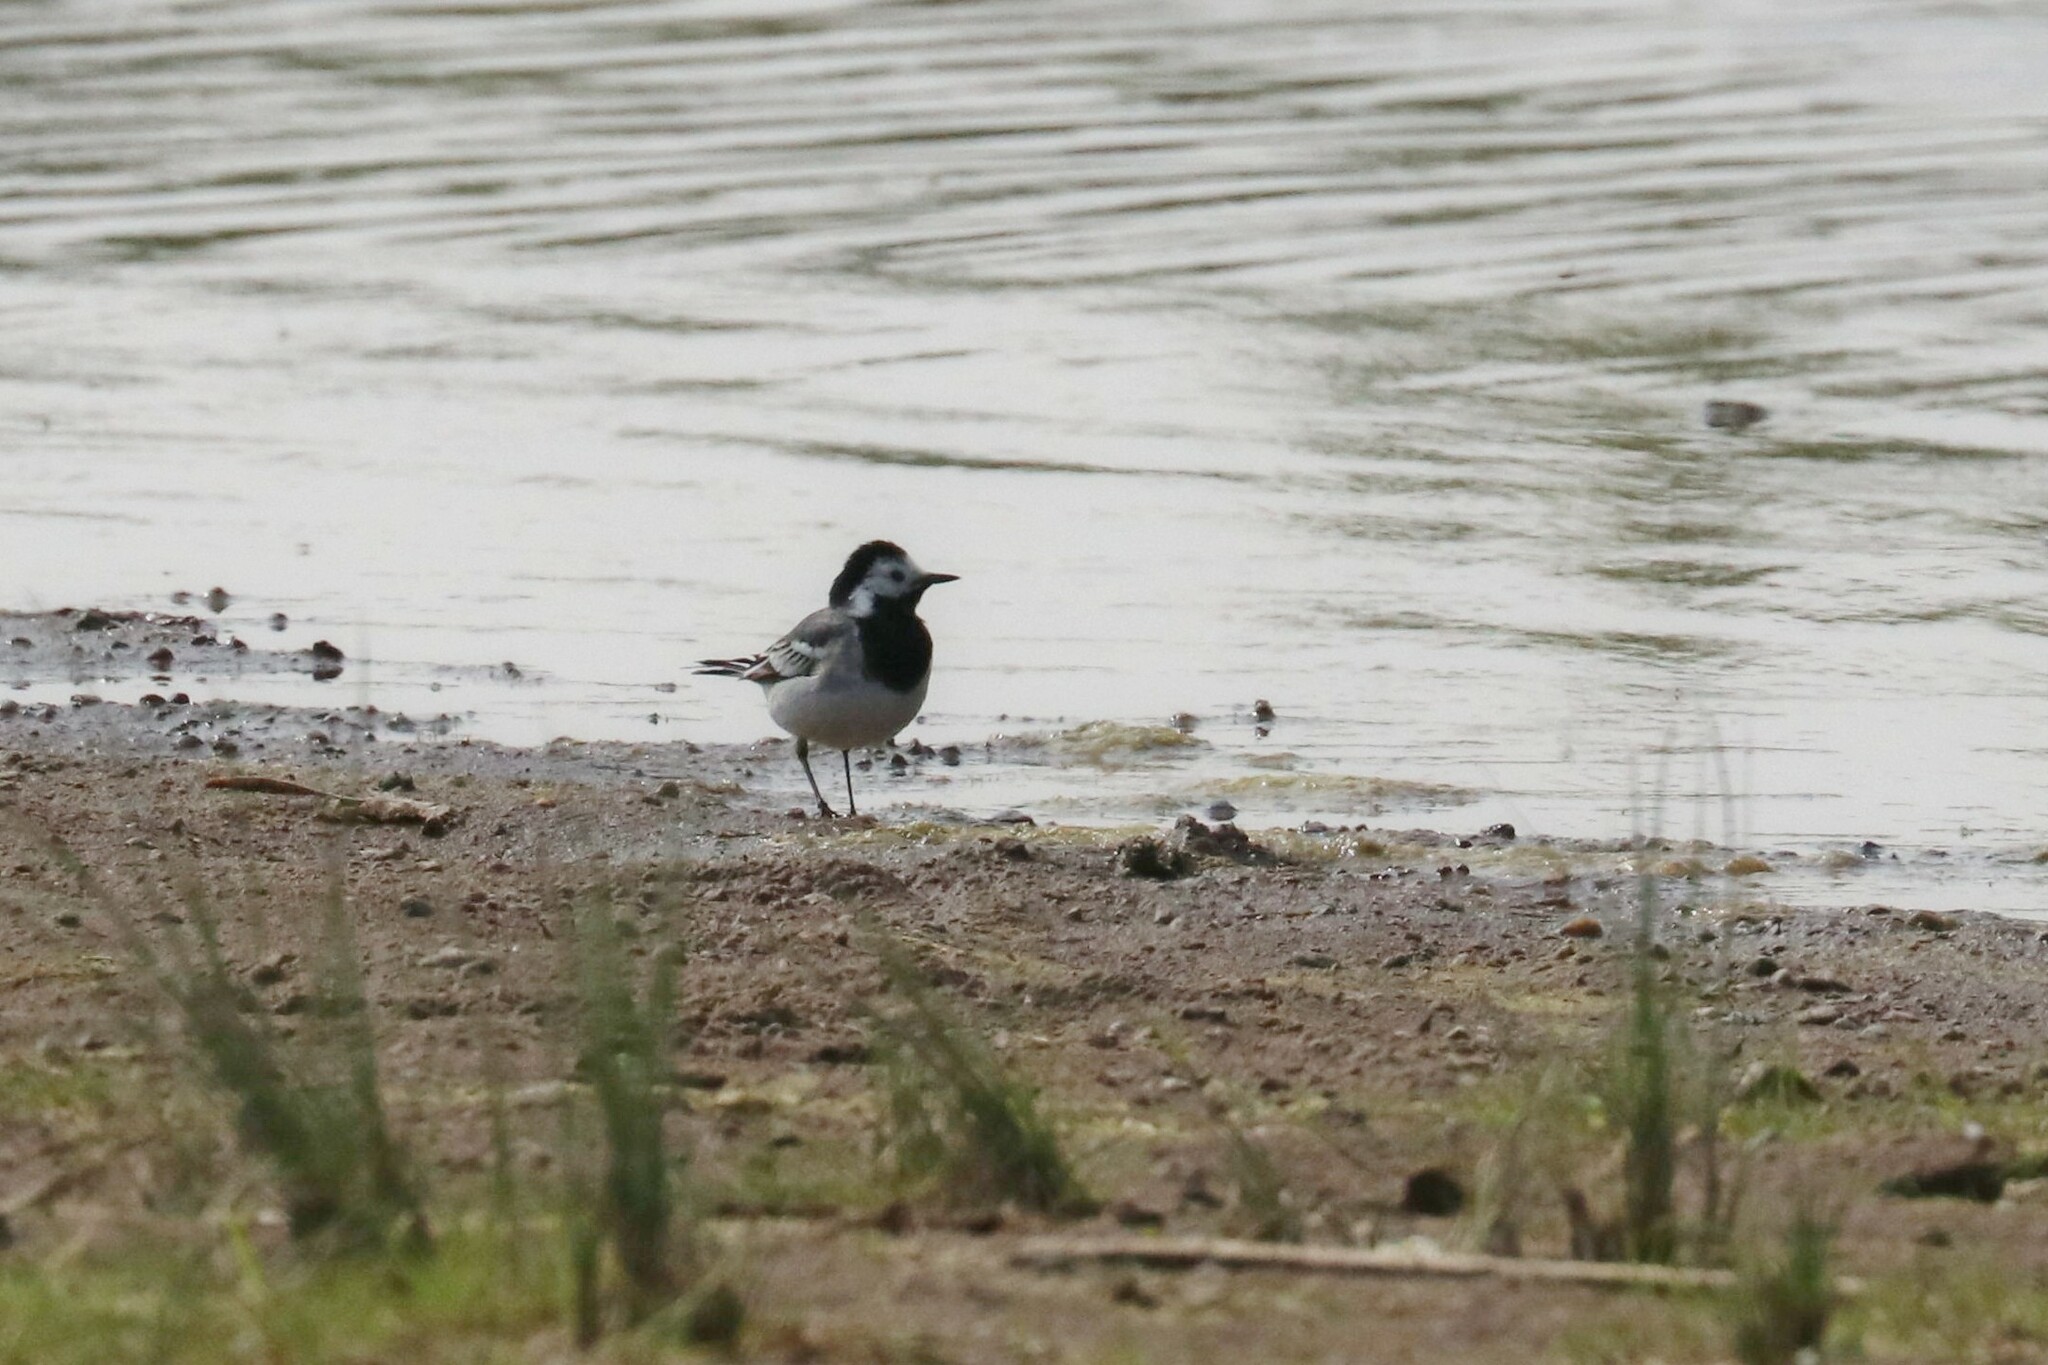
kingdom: Animalia
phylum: Chordata
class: Aves
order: Passeriformes
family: Motacillidae
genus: Motacilla
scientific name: Motacilla alba
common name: White wagtail
